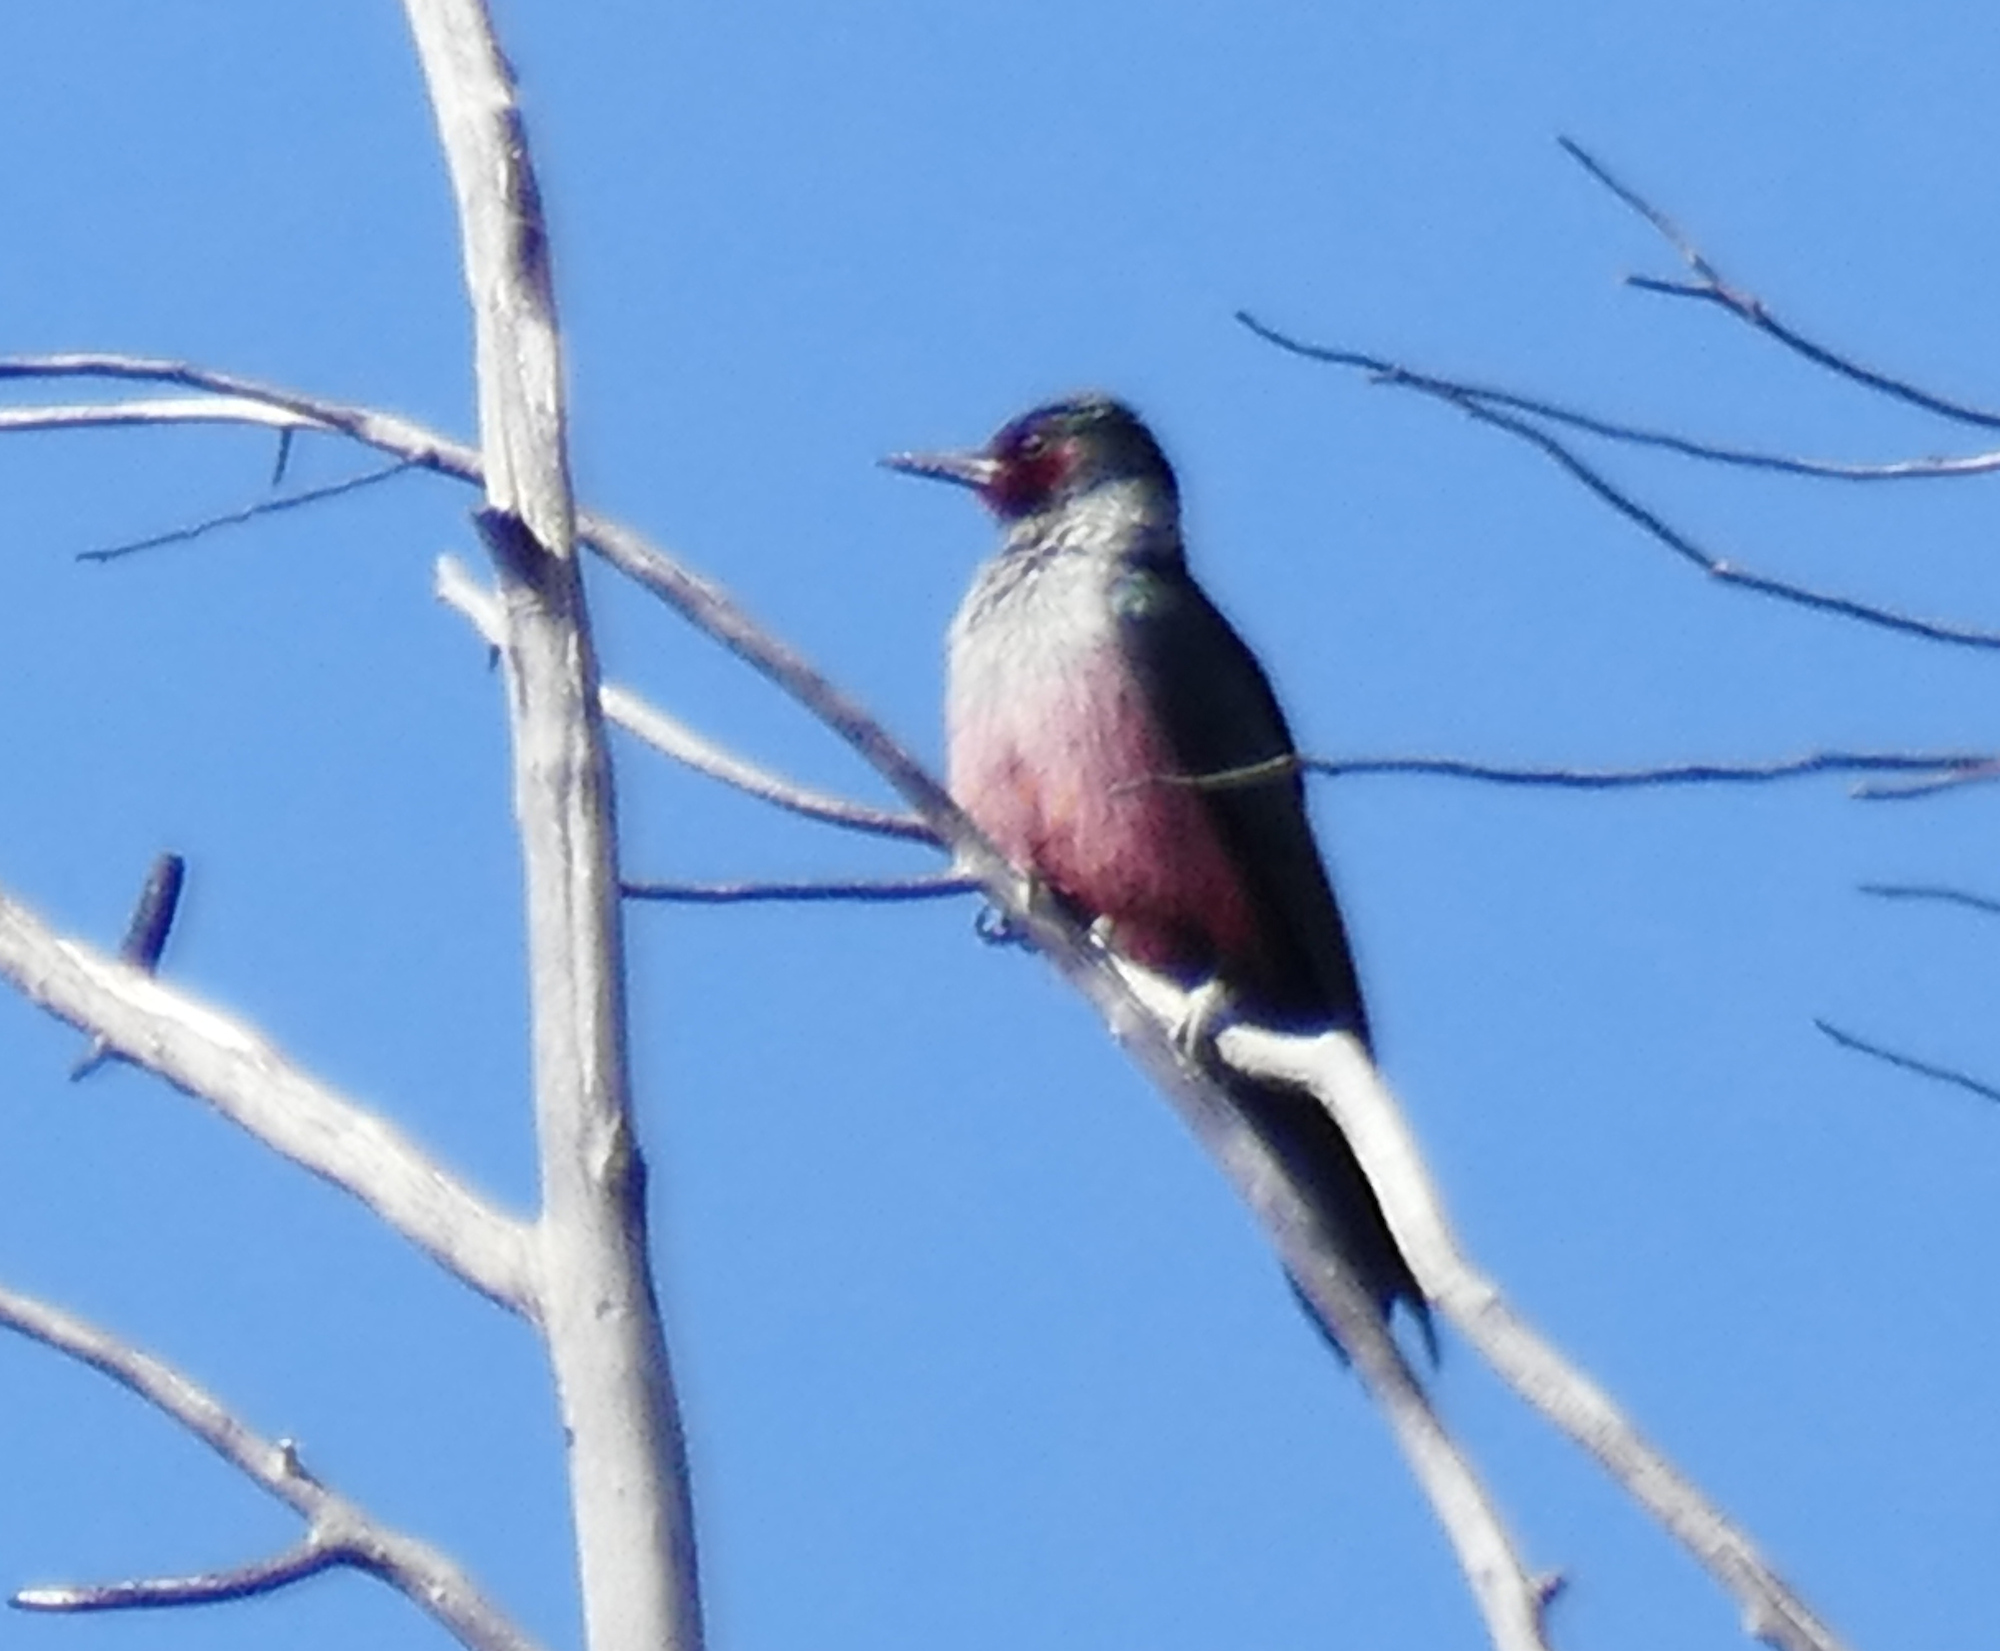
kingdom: Animalia
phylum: Chordata
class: Aves
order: Piciformes
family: Picidae
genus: Melanerpes
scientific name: Melanerpes lewis
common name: Lewis's woodpecker
